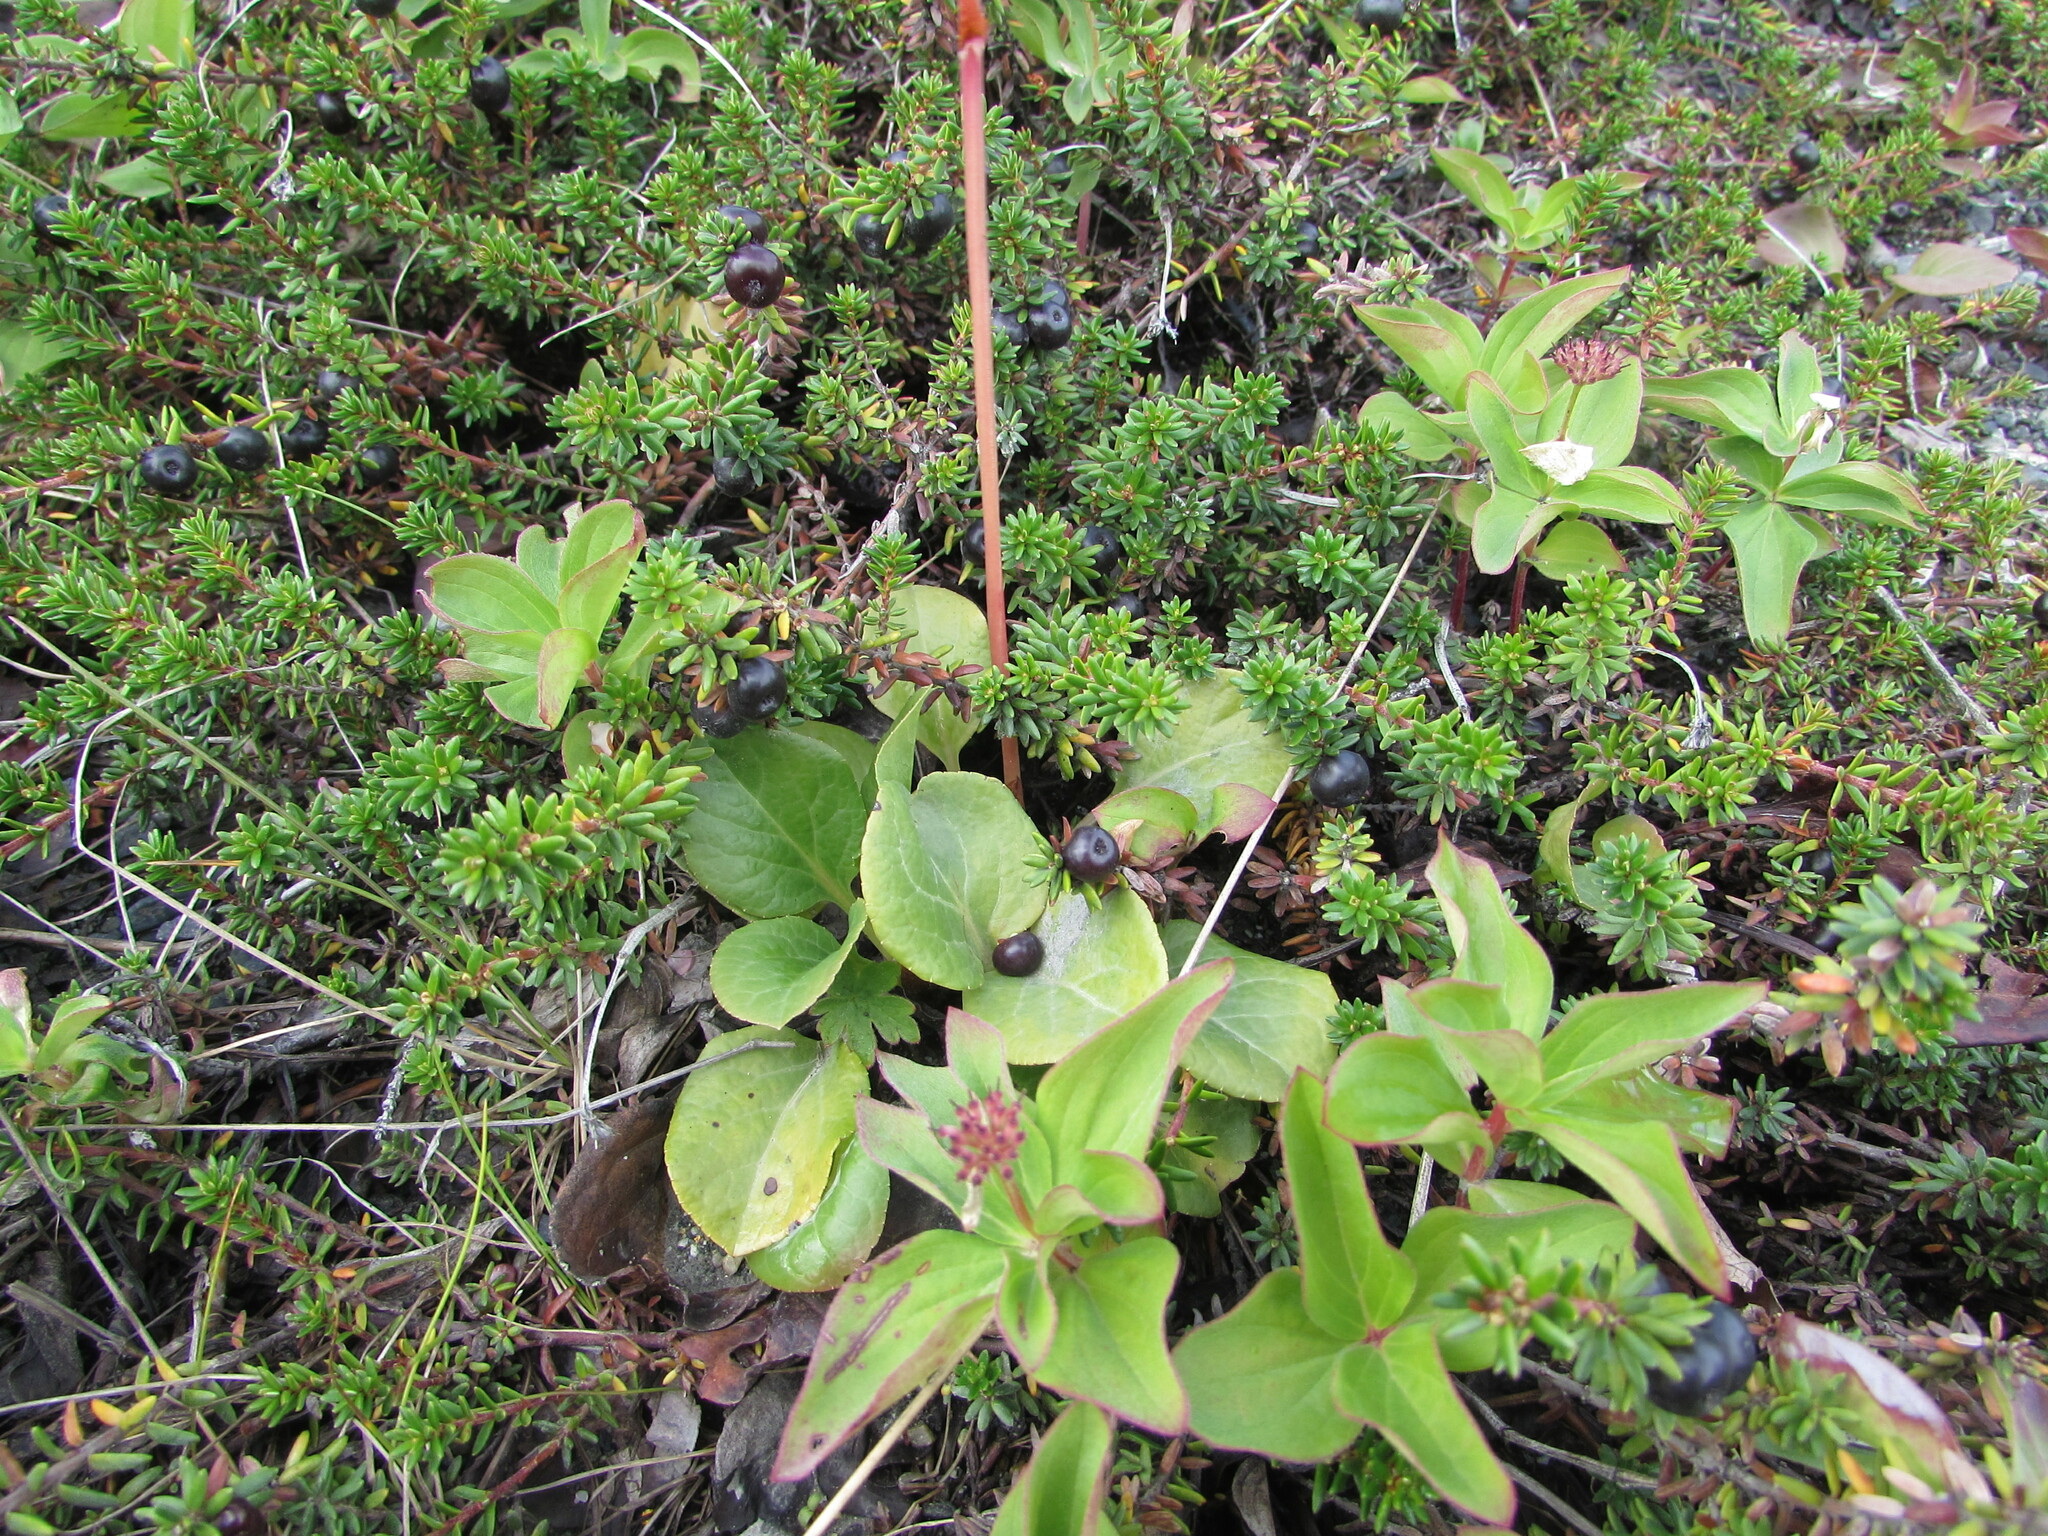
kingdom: Plantae
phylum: Tracheophyta
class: Magnoliopsida
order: Ericales
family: Ericaceae
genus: Pyrola
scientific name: Pyrola grandiflora
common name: Arctic pyrola
